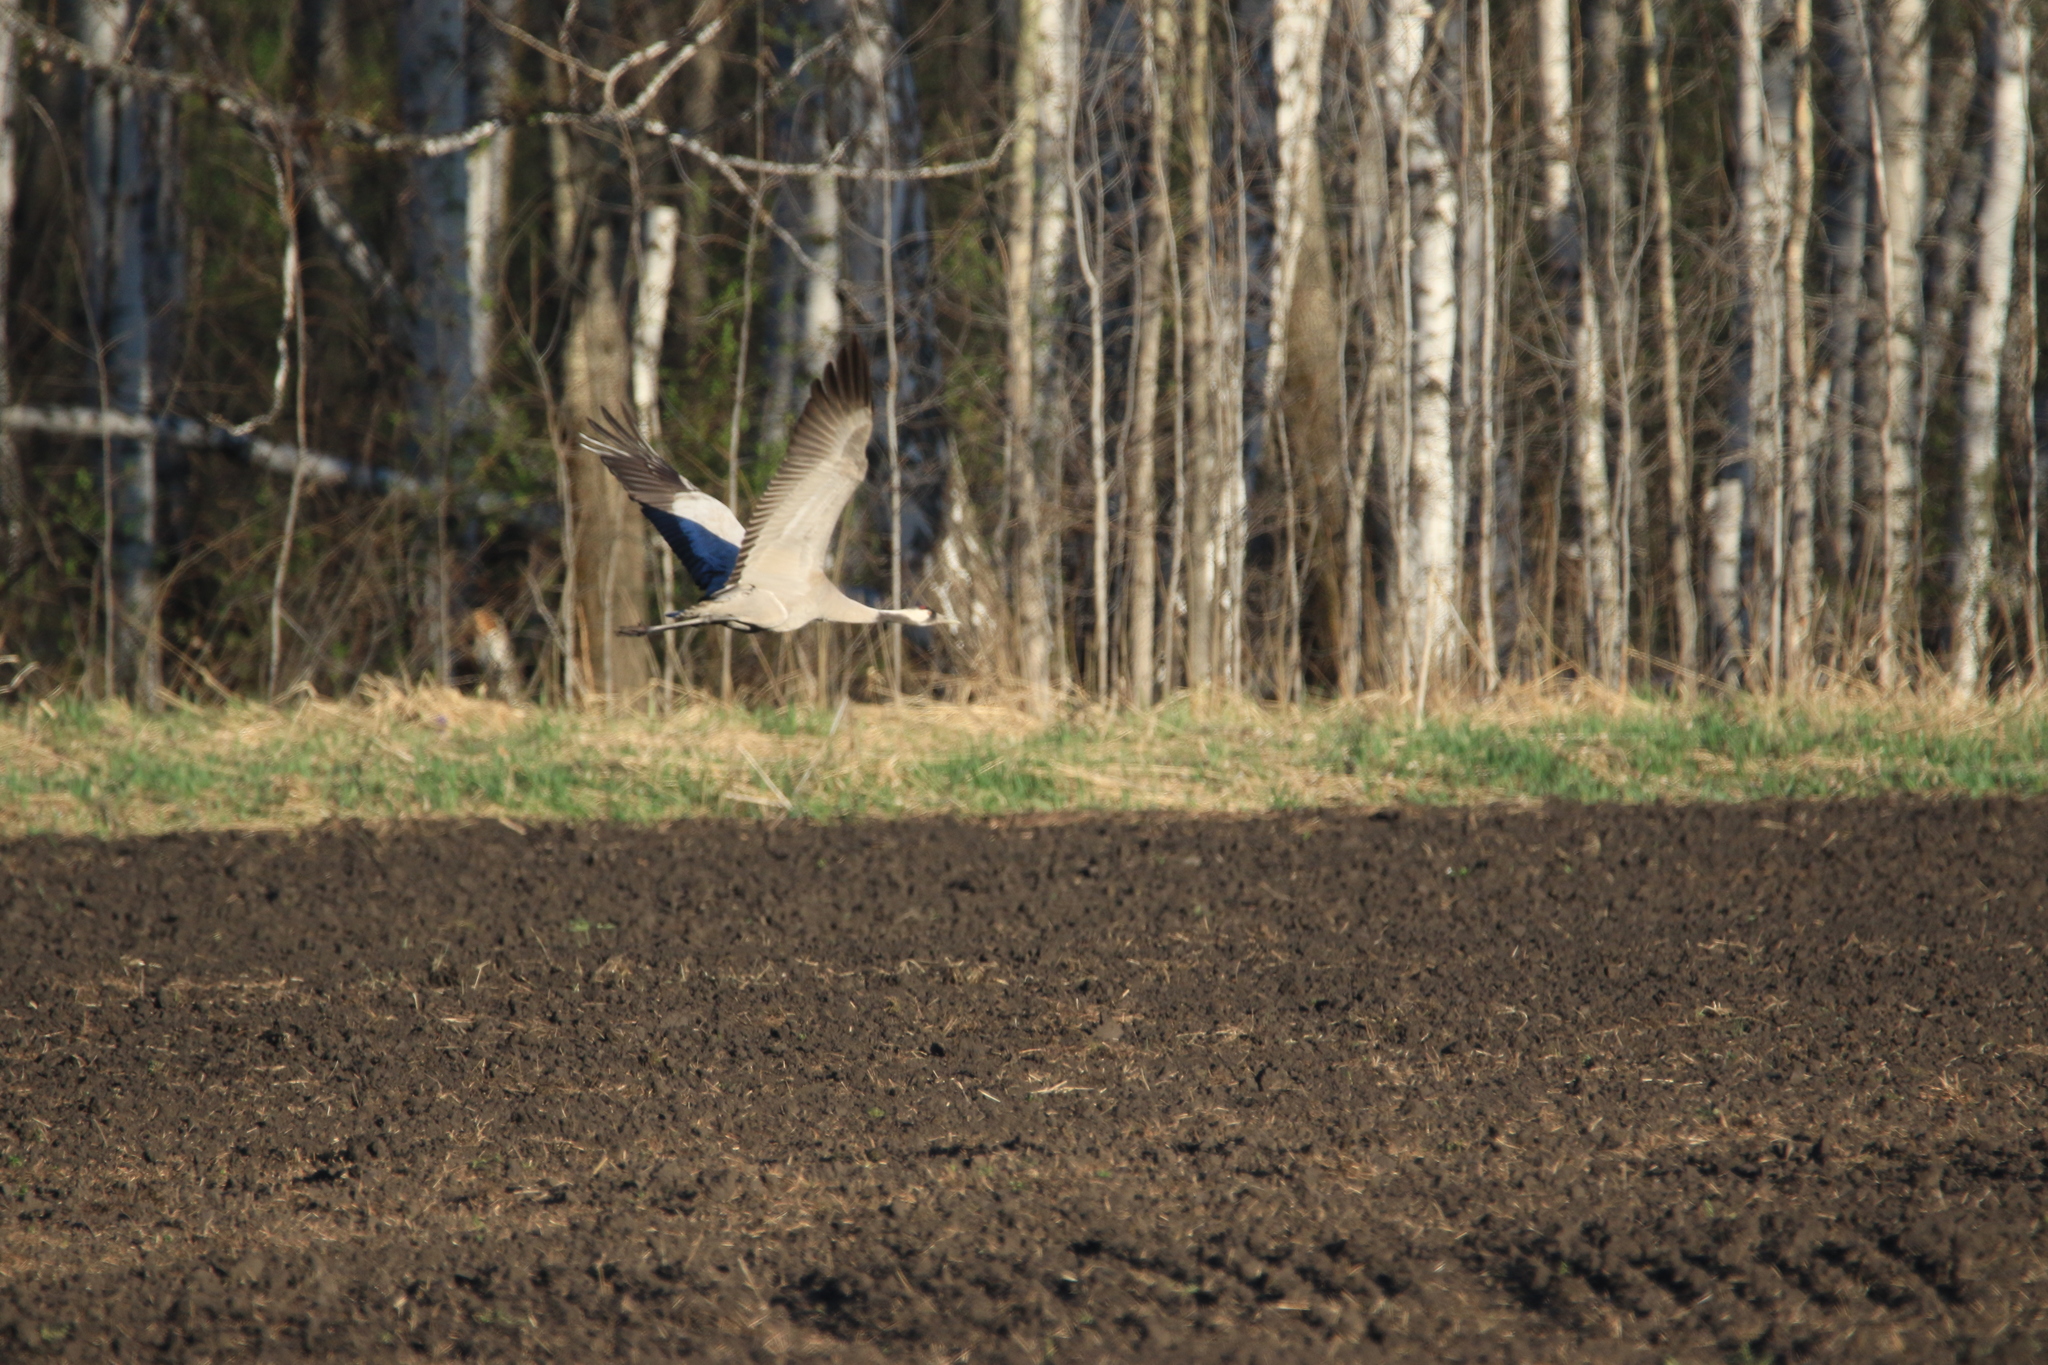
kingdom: Animalia
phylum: Chordata
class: Aves
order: Gruiformes
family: Gruidae
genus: Grus
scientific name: Grus grus
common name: Common crane
